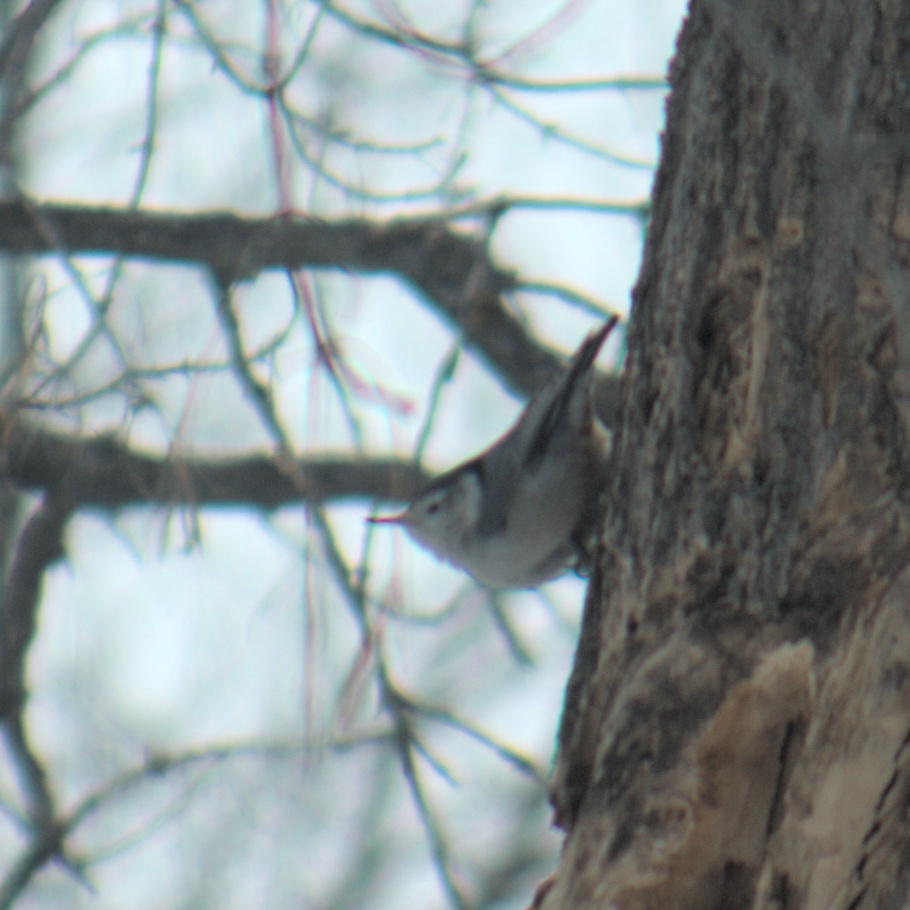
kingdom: Animalia
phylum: Chordata
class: Aves
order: Passeriformes
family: Sittidae
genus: Sitta
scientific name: Sitta carolinensis
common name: White-breasted nuthatch
